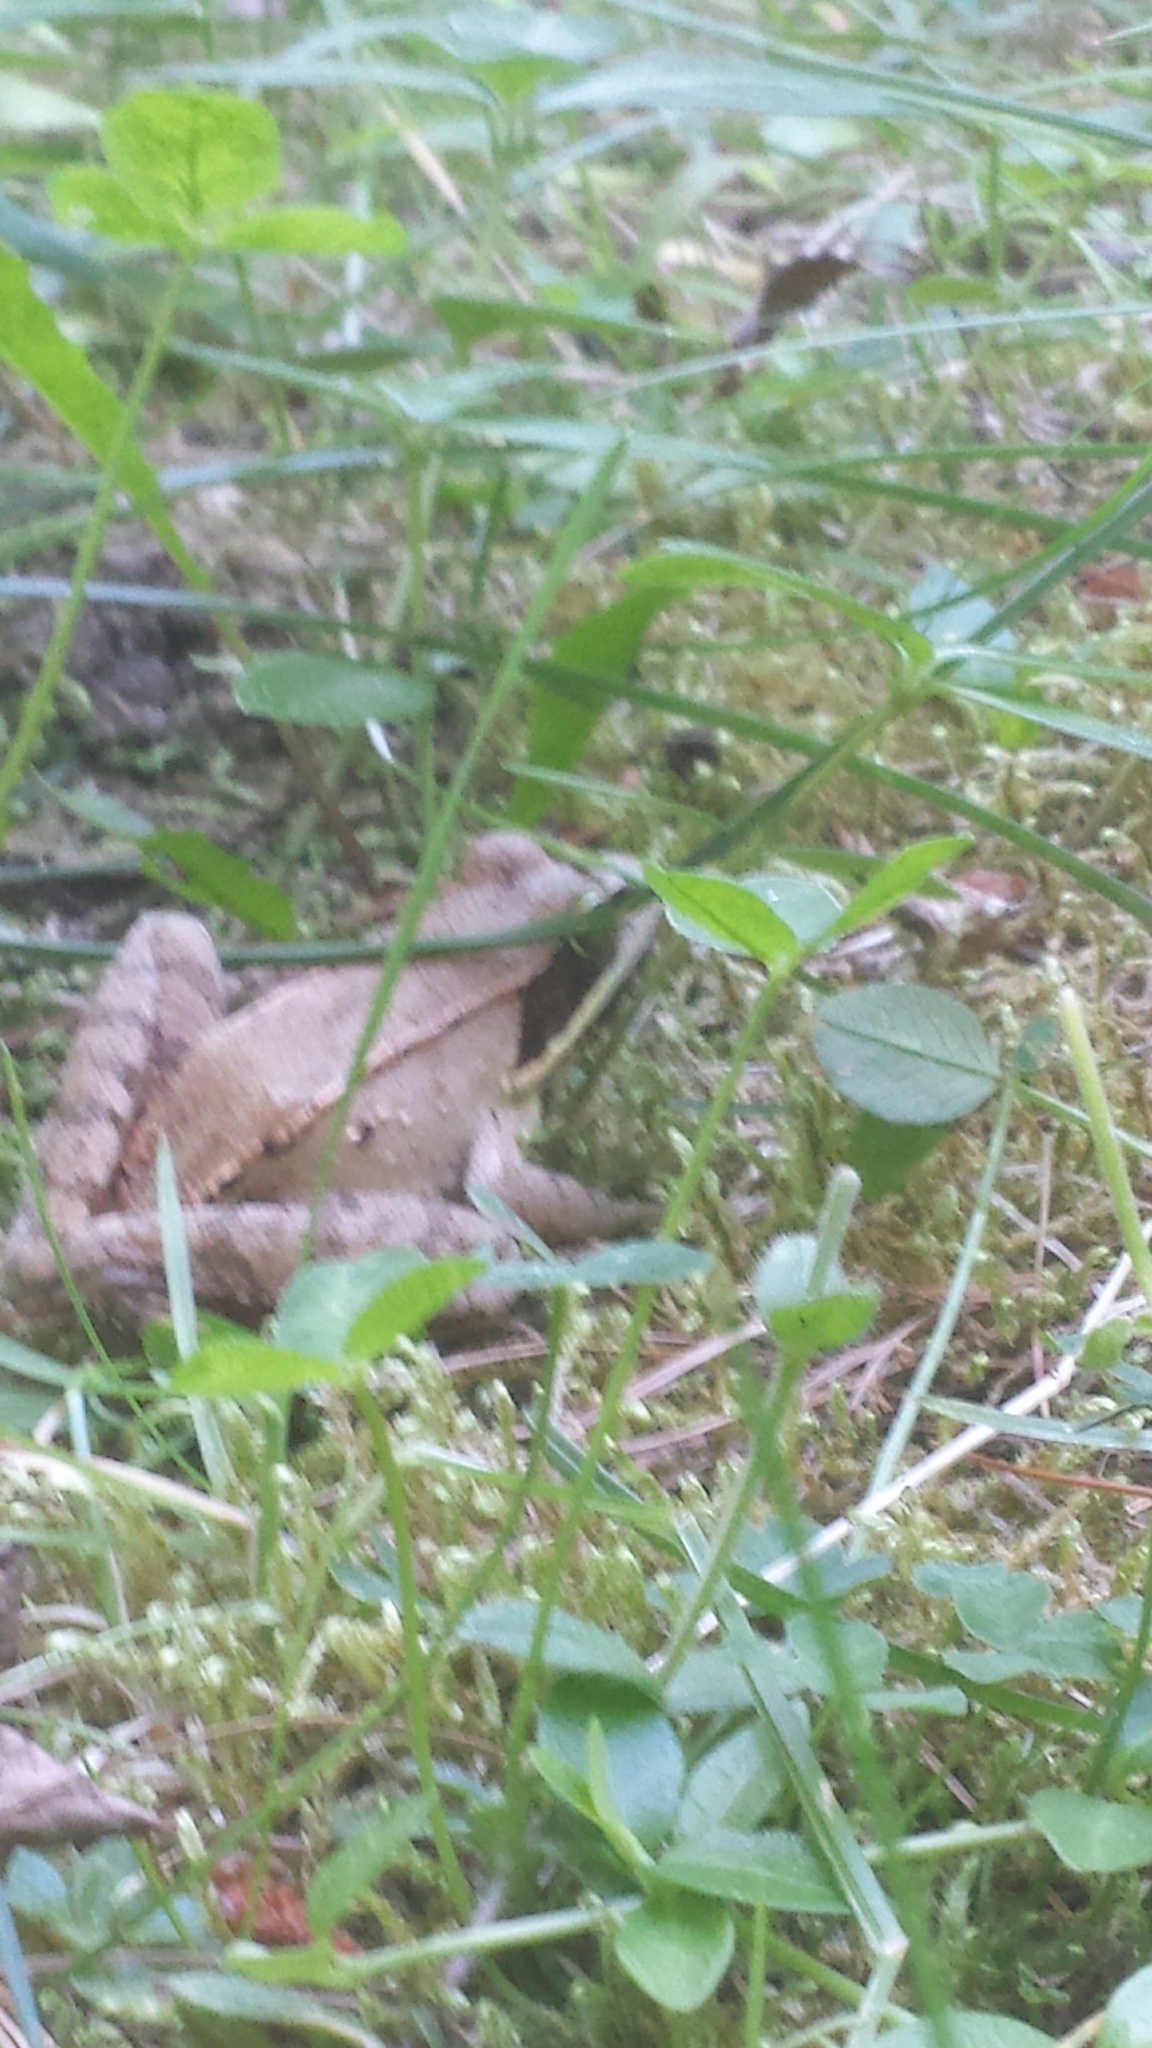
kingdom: Animalia
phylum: Chordata
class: Amphibia
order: Anura
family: Ranidae
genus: Lithobates
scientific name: Lithobates sylvaticus
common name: Wood frog
